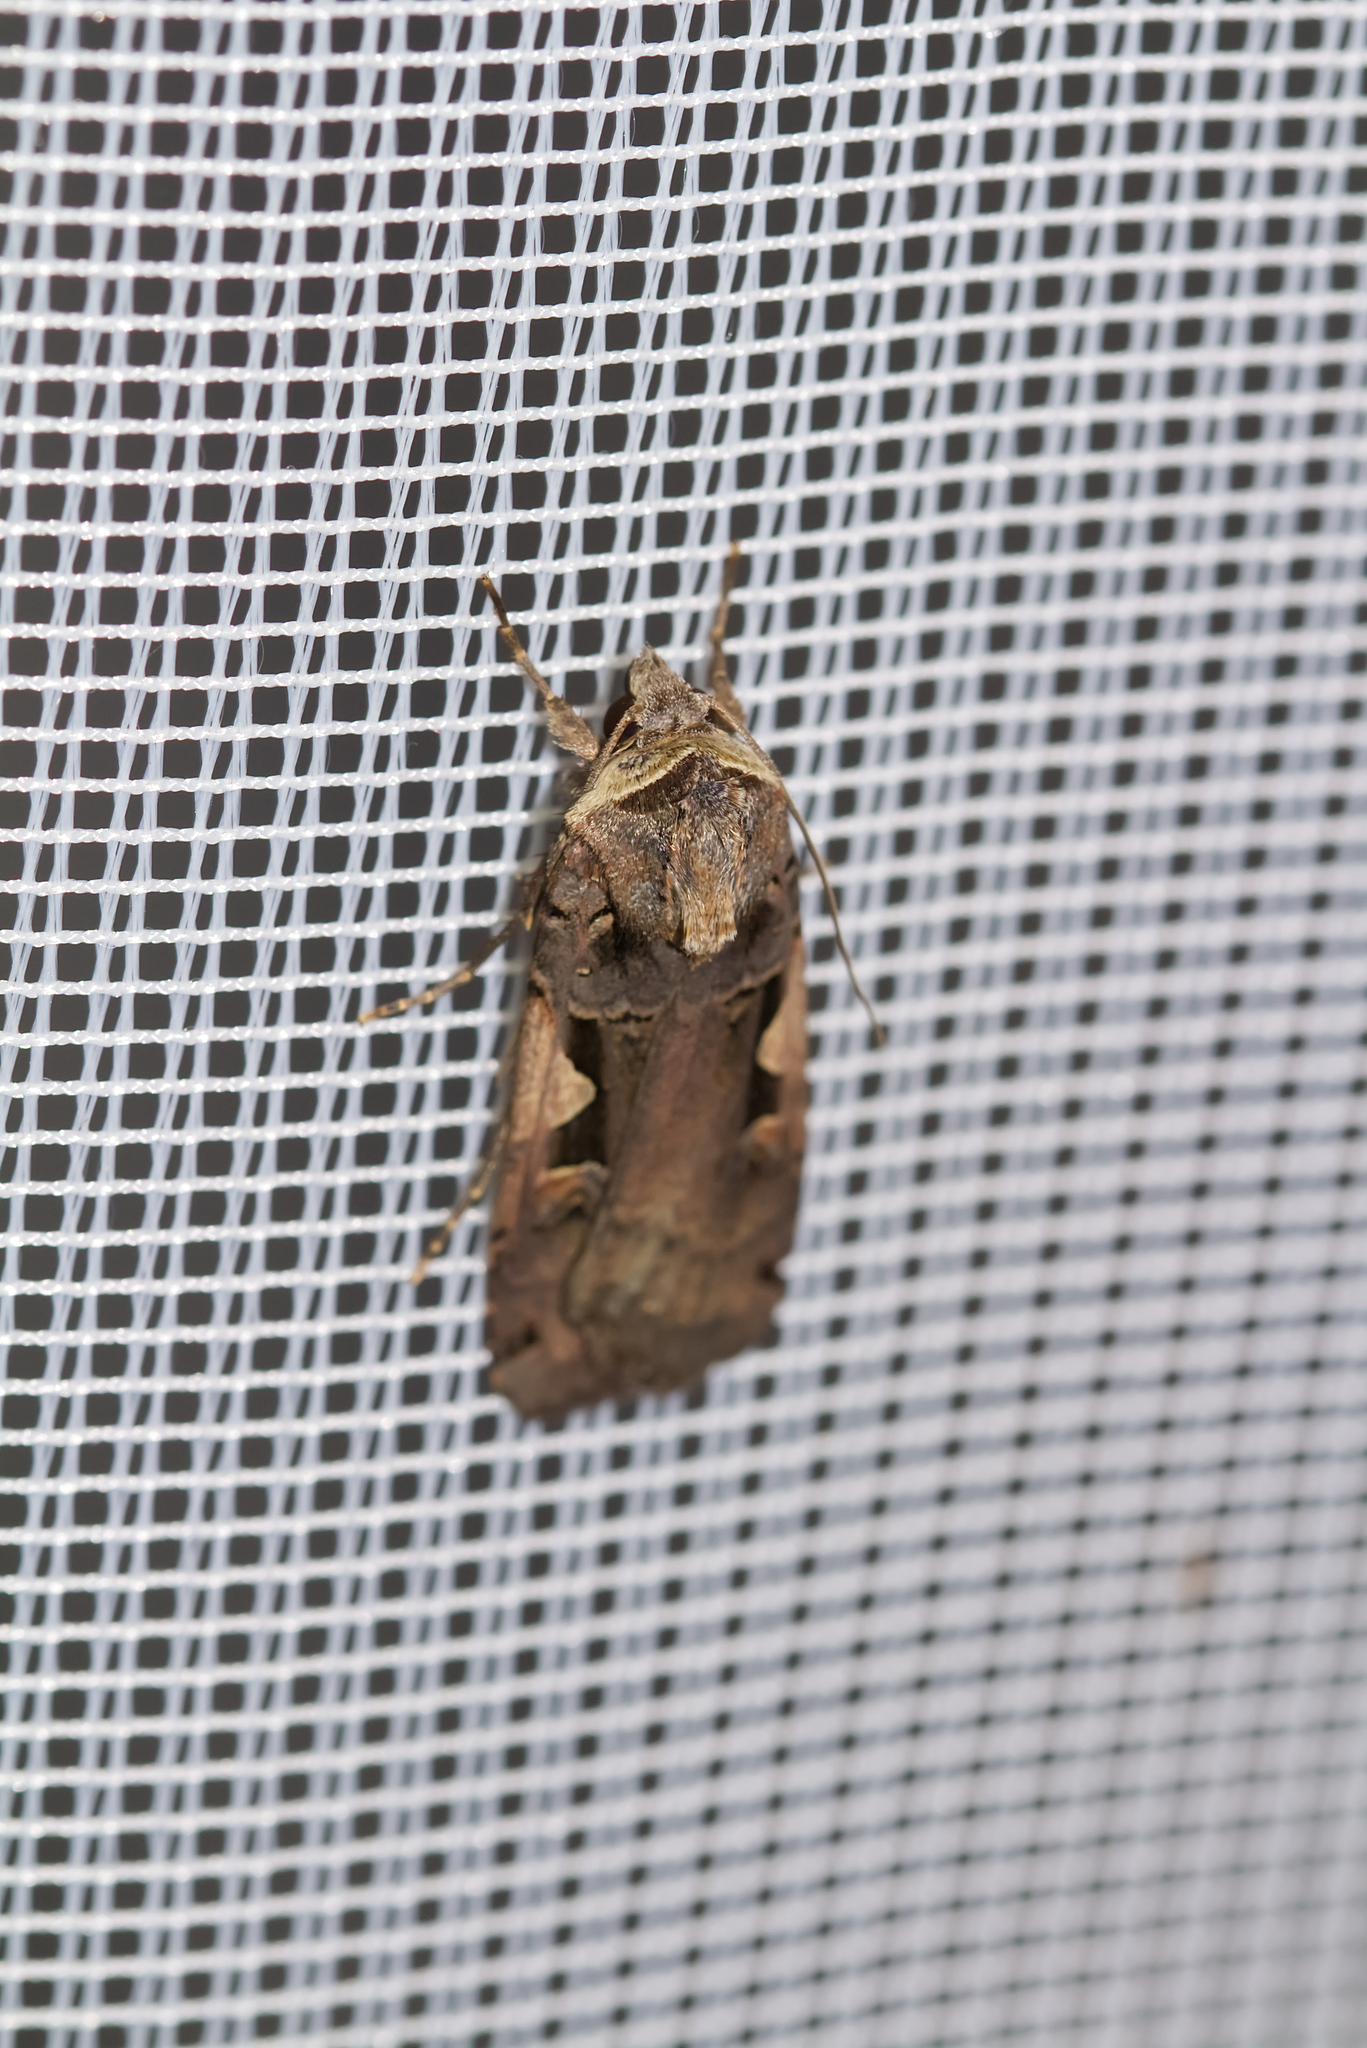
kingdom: Animalia
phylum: Arthropoda
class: Insecta
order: Lepidoptera
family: Noctuidae
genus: Xestia
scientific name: Xestia c-nigrum
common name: Setaceous hebrew character
